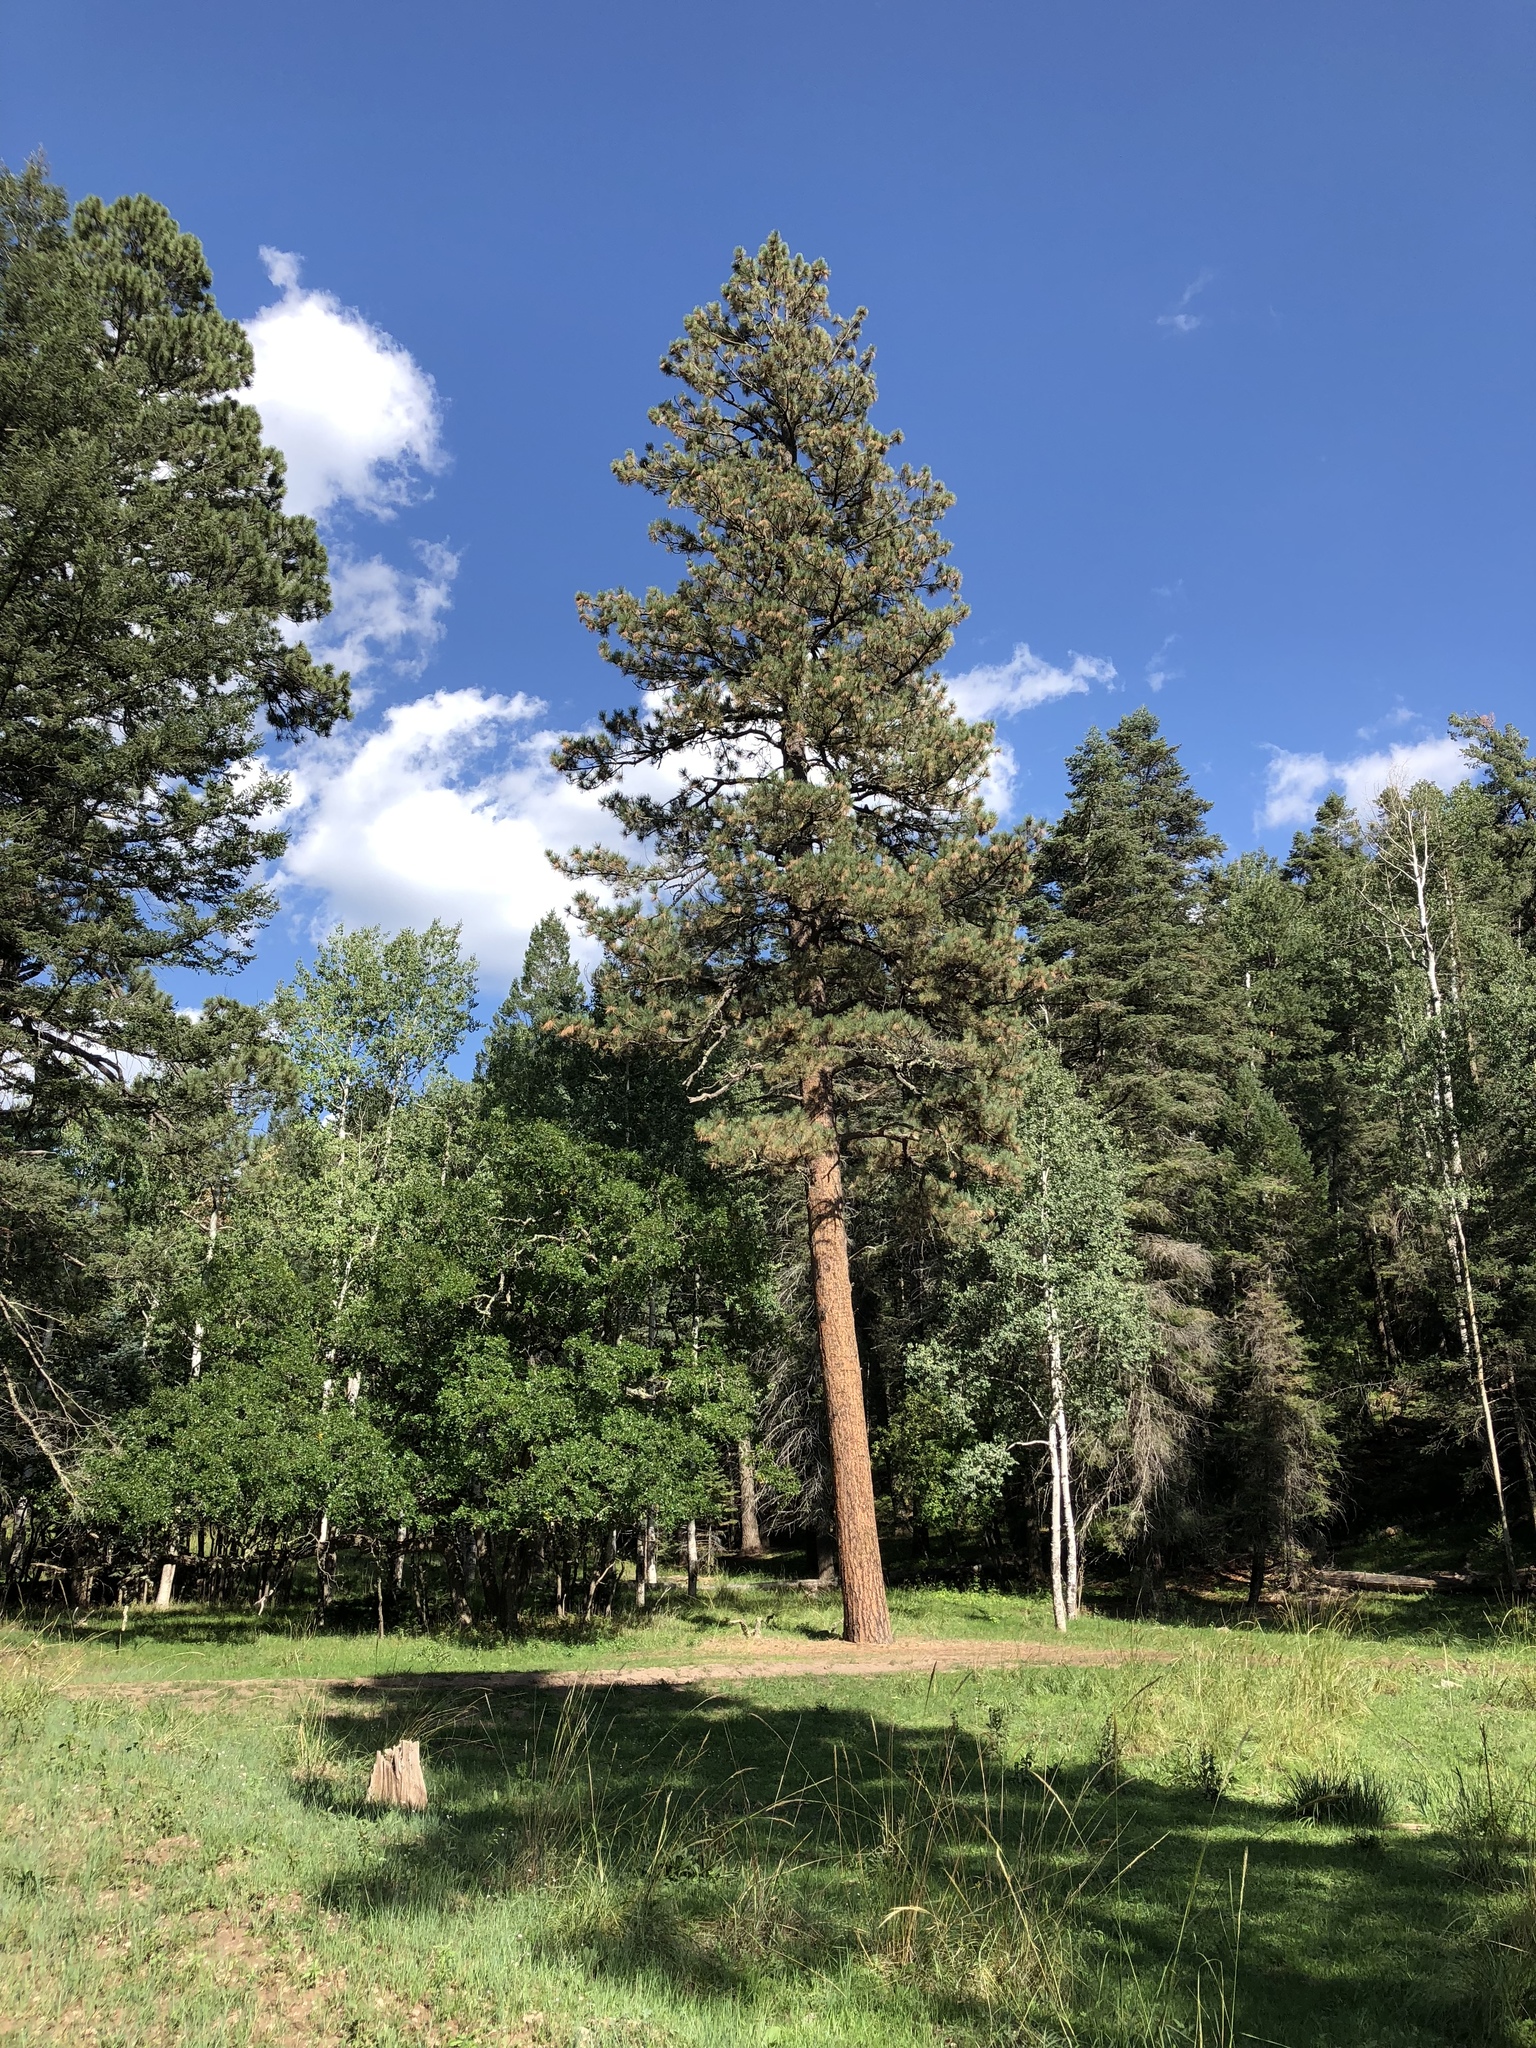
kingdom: Plantae
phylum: Tracheophyta
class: Pinopsida
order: Pinales
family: Pinaceae
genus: Pinus
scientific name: Pinus ponderosa
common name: Western yellow-pine
